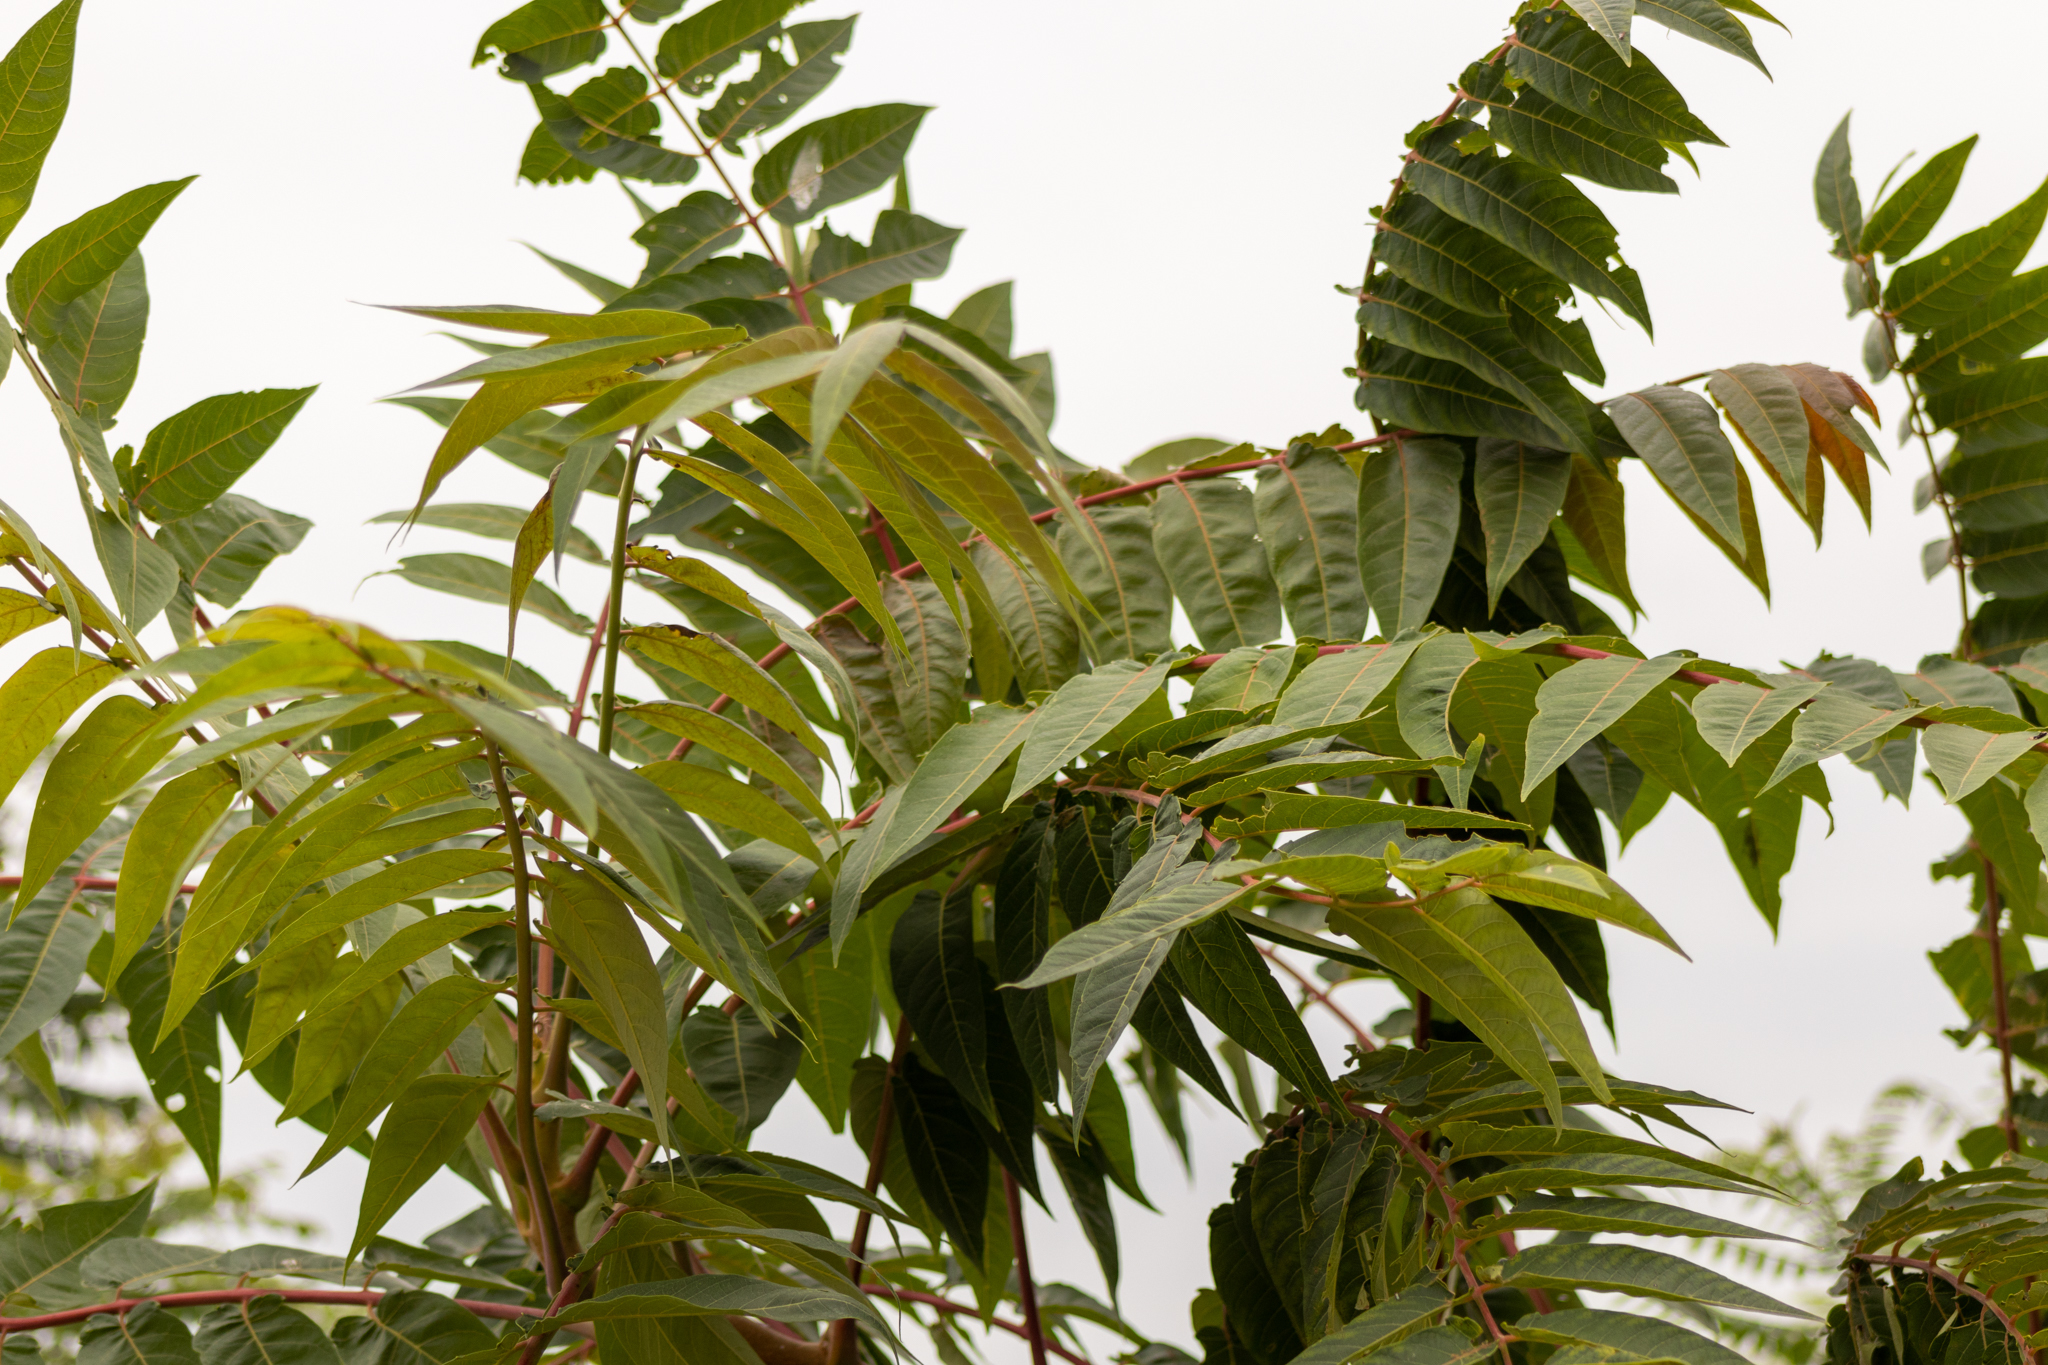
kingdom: Plantae
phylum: Tracheophyta
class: Magnoliopsida
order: Sapindales
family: Simaroubaceae
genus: Ailanthus
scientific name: Ailanthus altissima
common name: Tree-of-heaven
